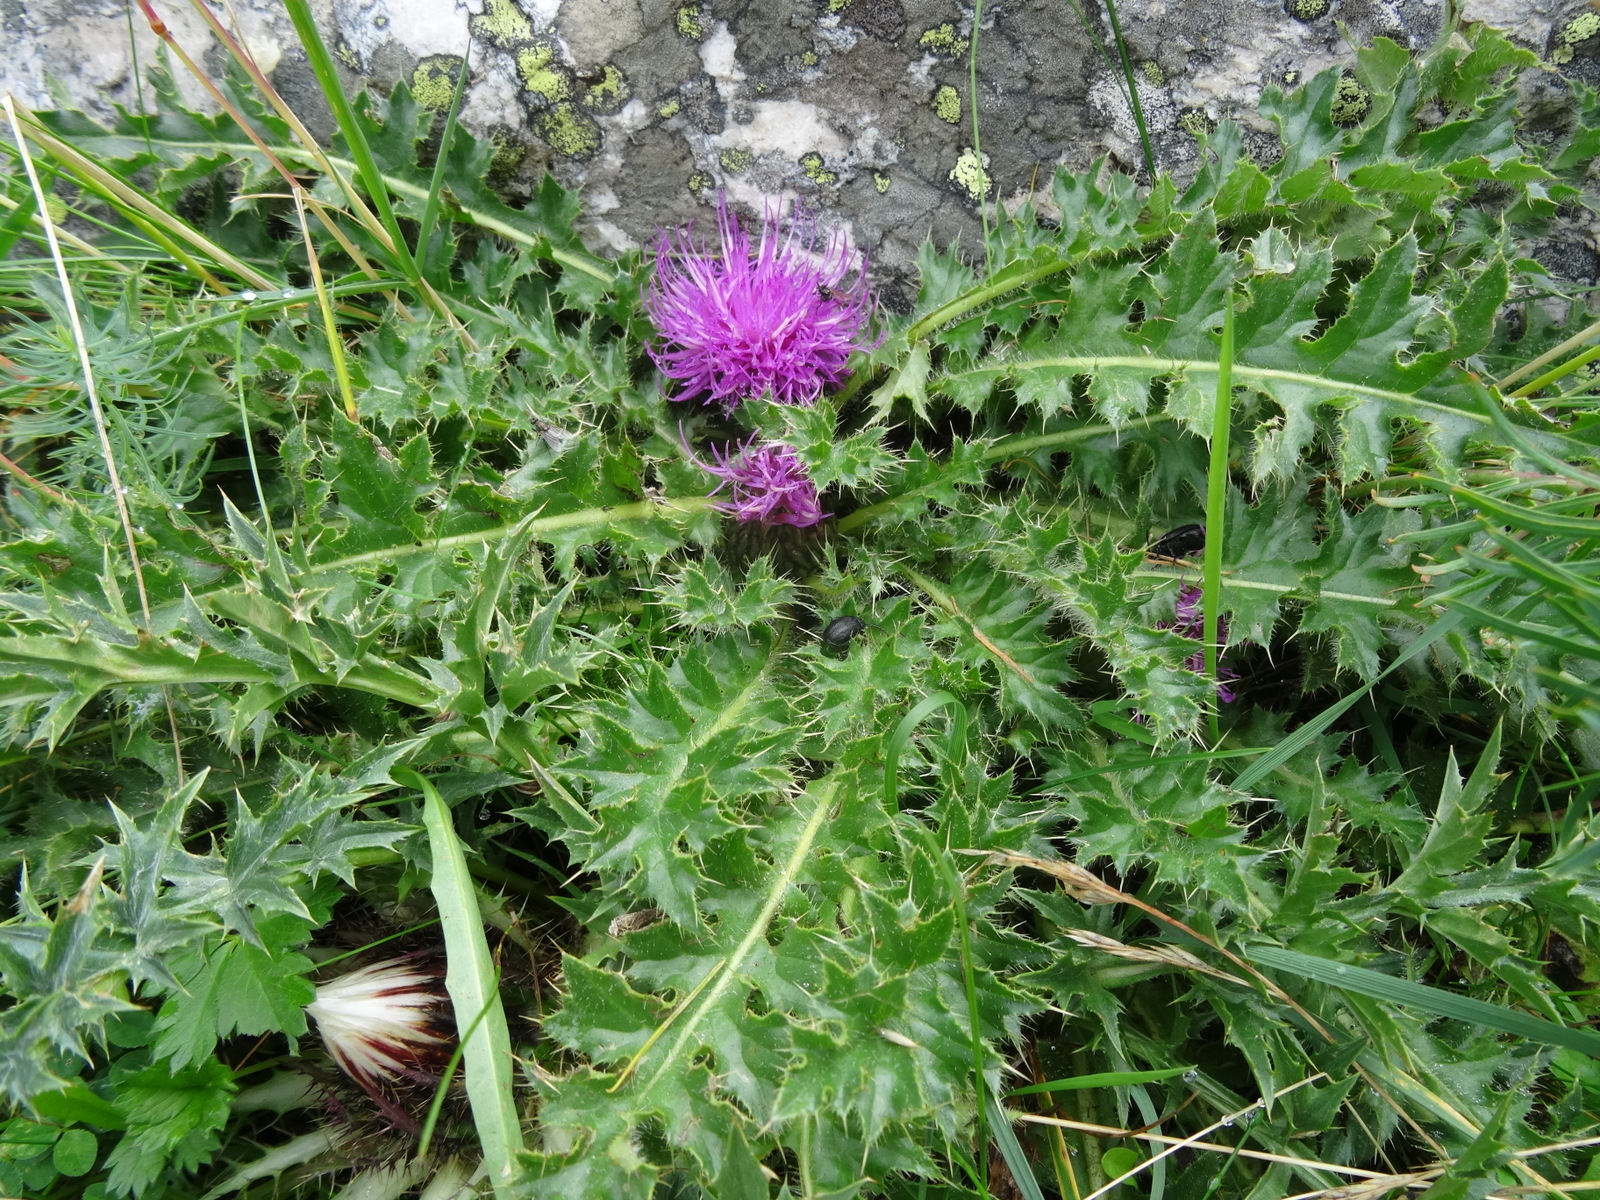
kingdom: Plantae
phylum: Tracheophyta
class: Magnoliopsida
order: Asterales
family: Asteraceae
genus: Cirsium
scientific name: Cirsium acaulon
